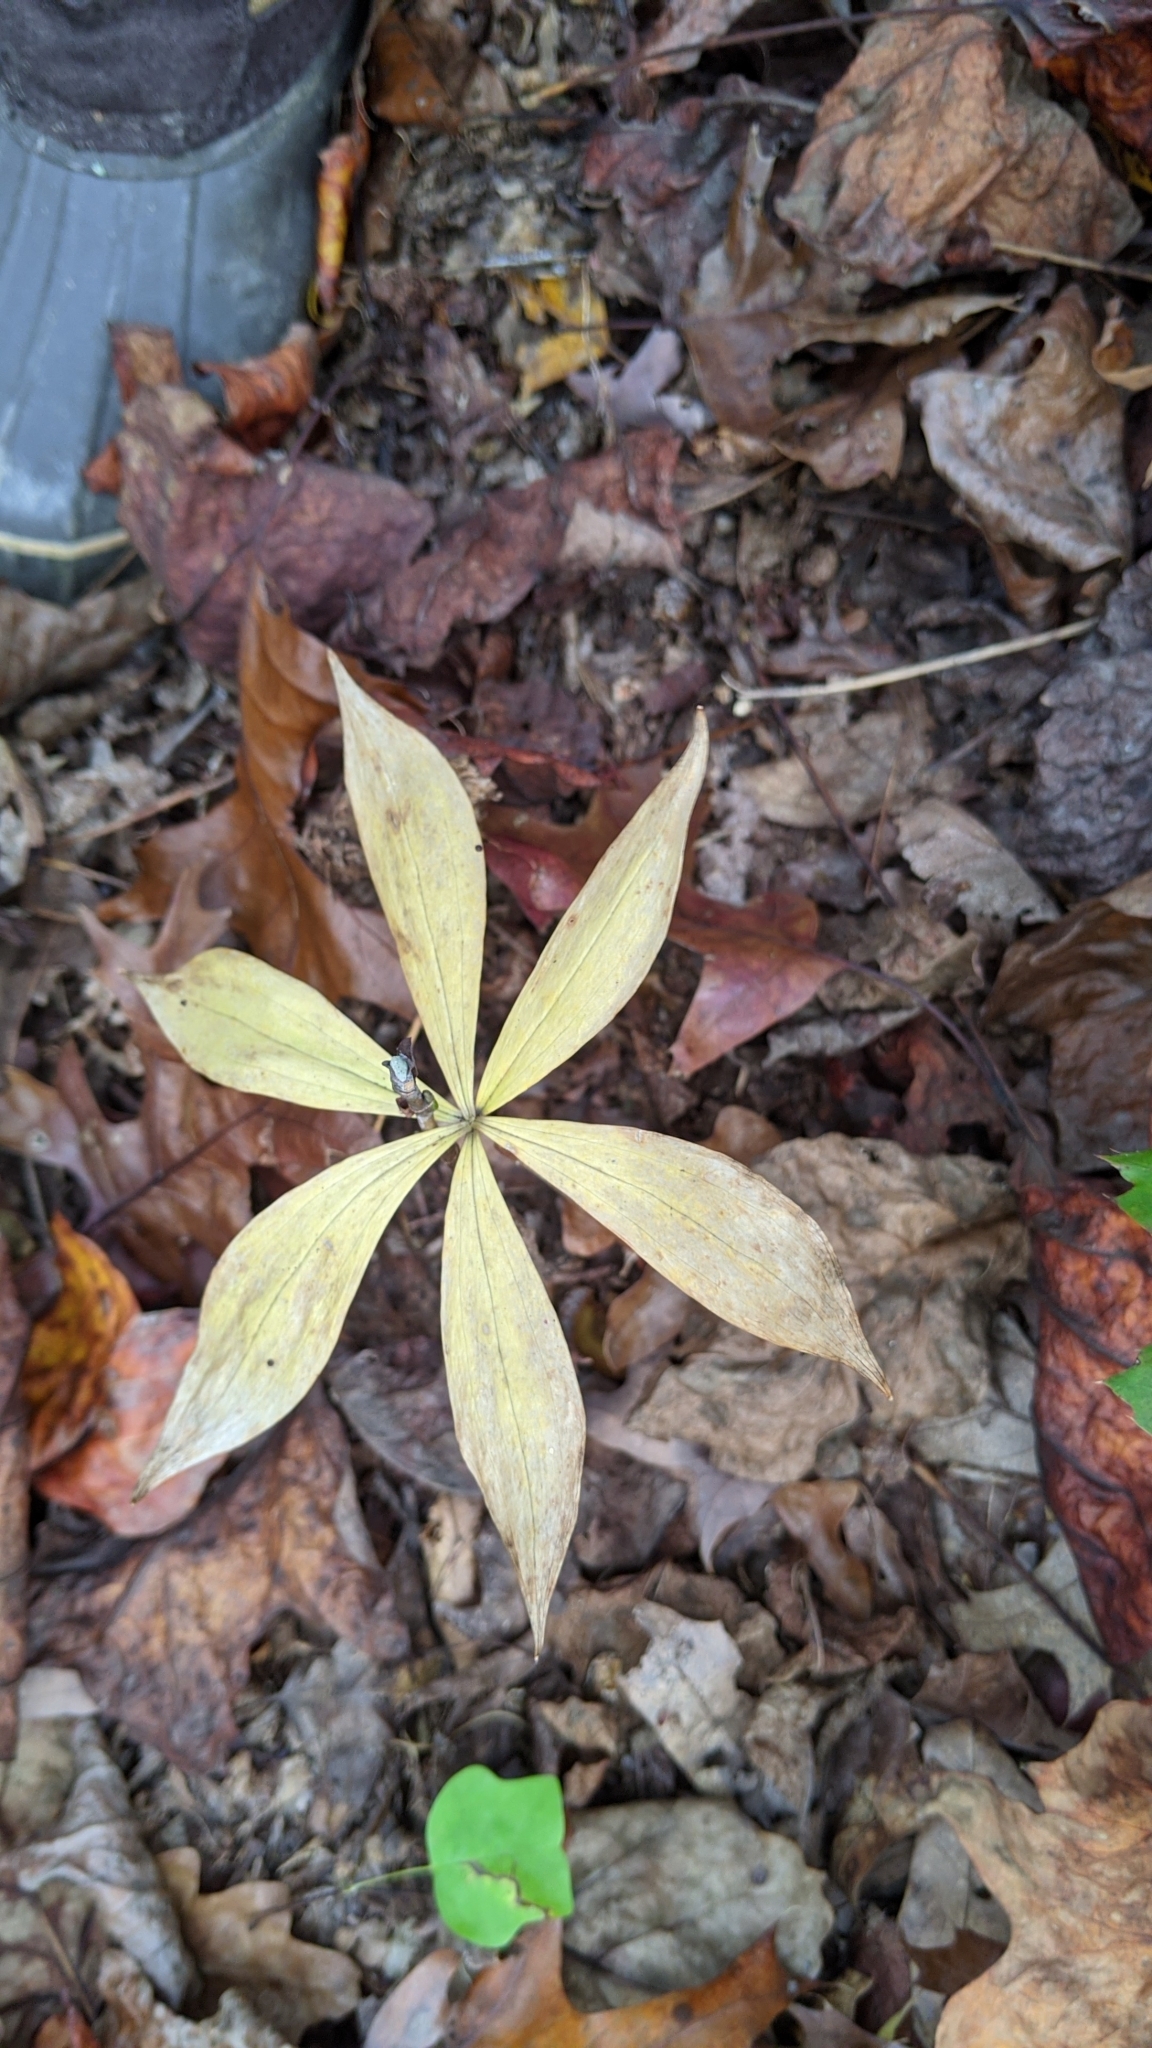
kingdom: Plantae
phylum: Tracheophyta
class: Liliopsida
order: Liliales
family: Liliaceae
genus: Medeola
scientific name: Medeola virginiana
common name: Indian cucumber-root
